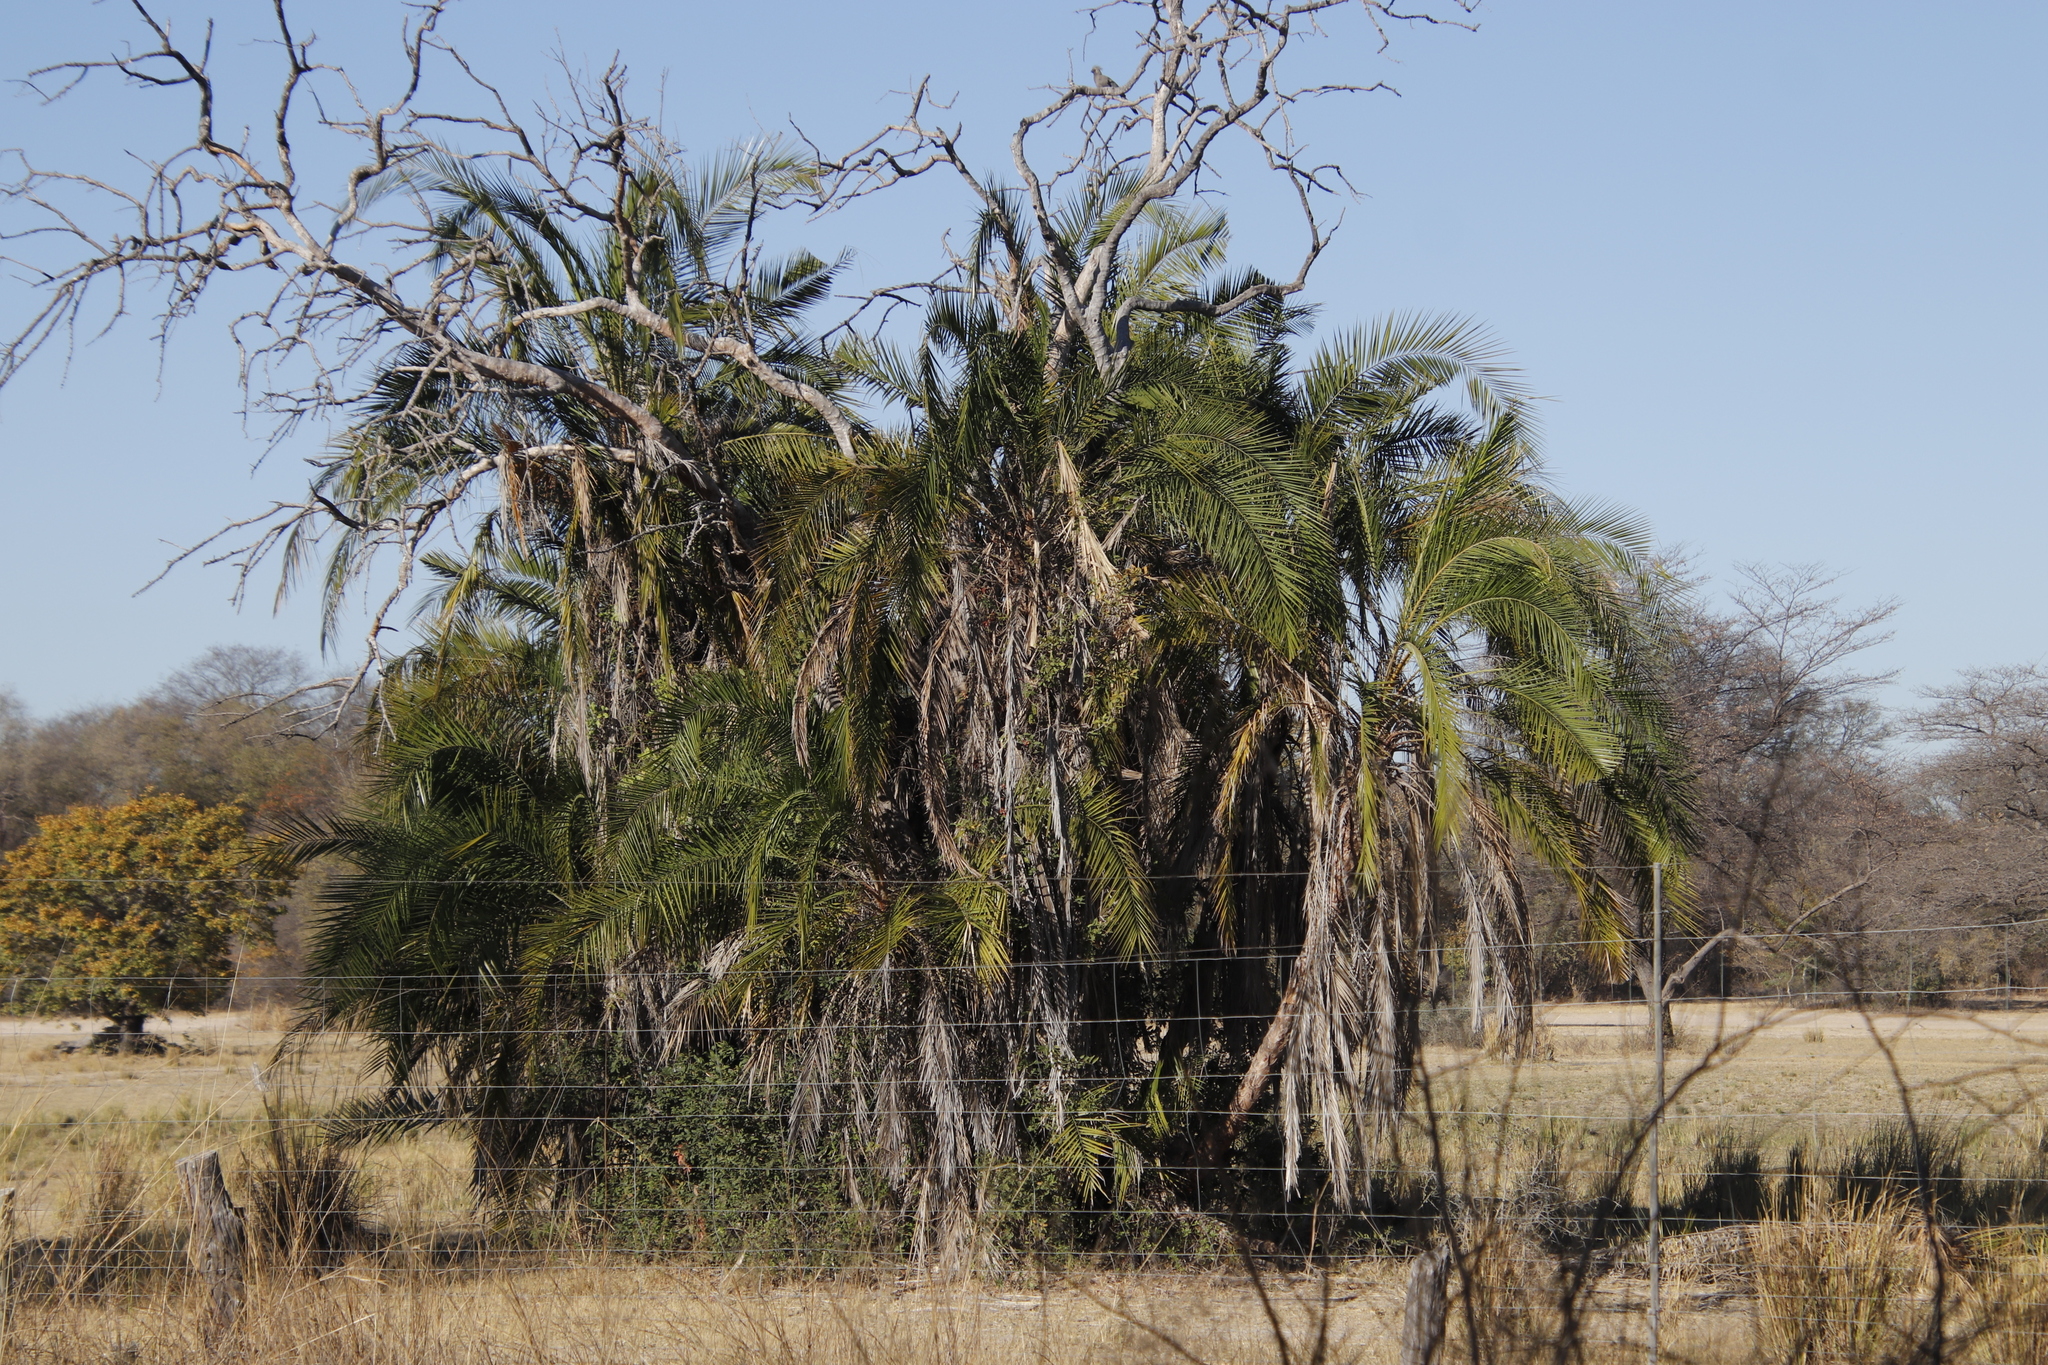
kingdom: Plantae
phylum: Tracheophyta
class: Liliopsida
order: Arecales
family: Arecaceae
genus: Phoenix
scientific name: Phoenix reclinata
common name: Senegal date palm
